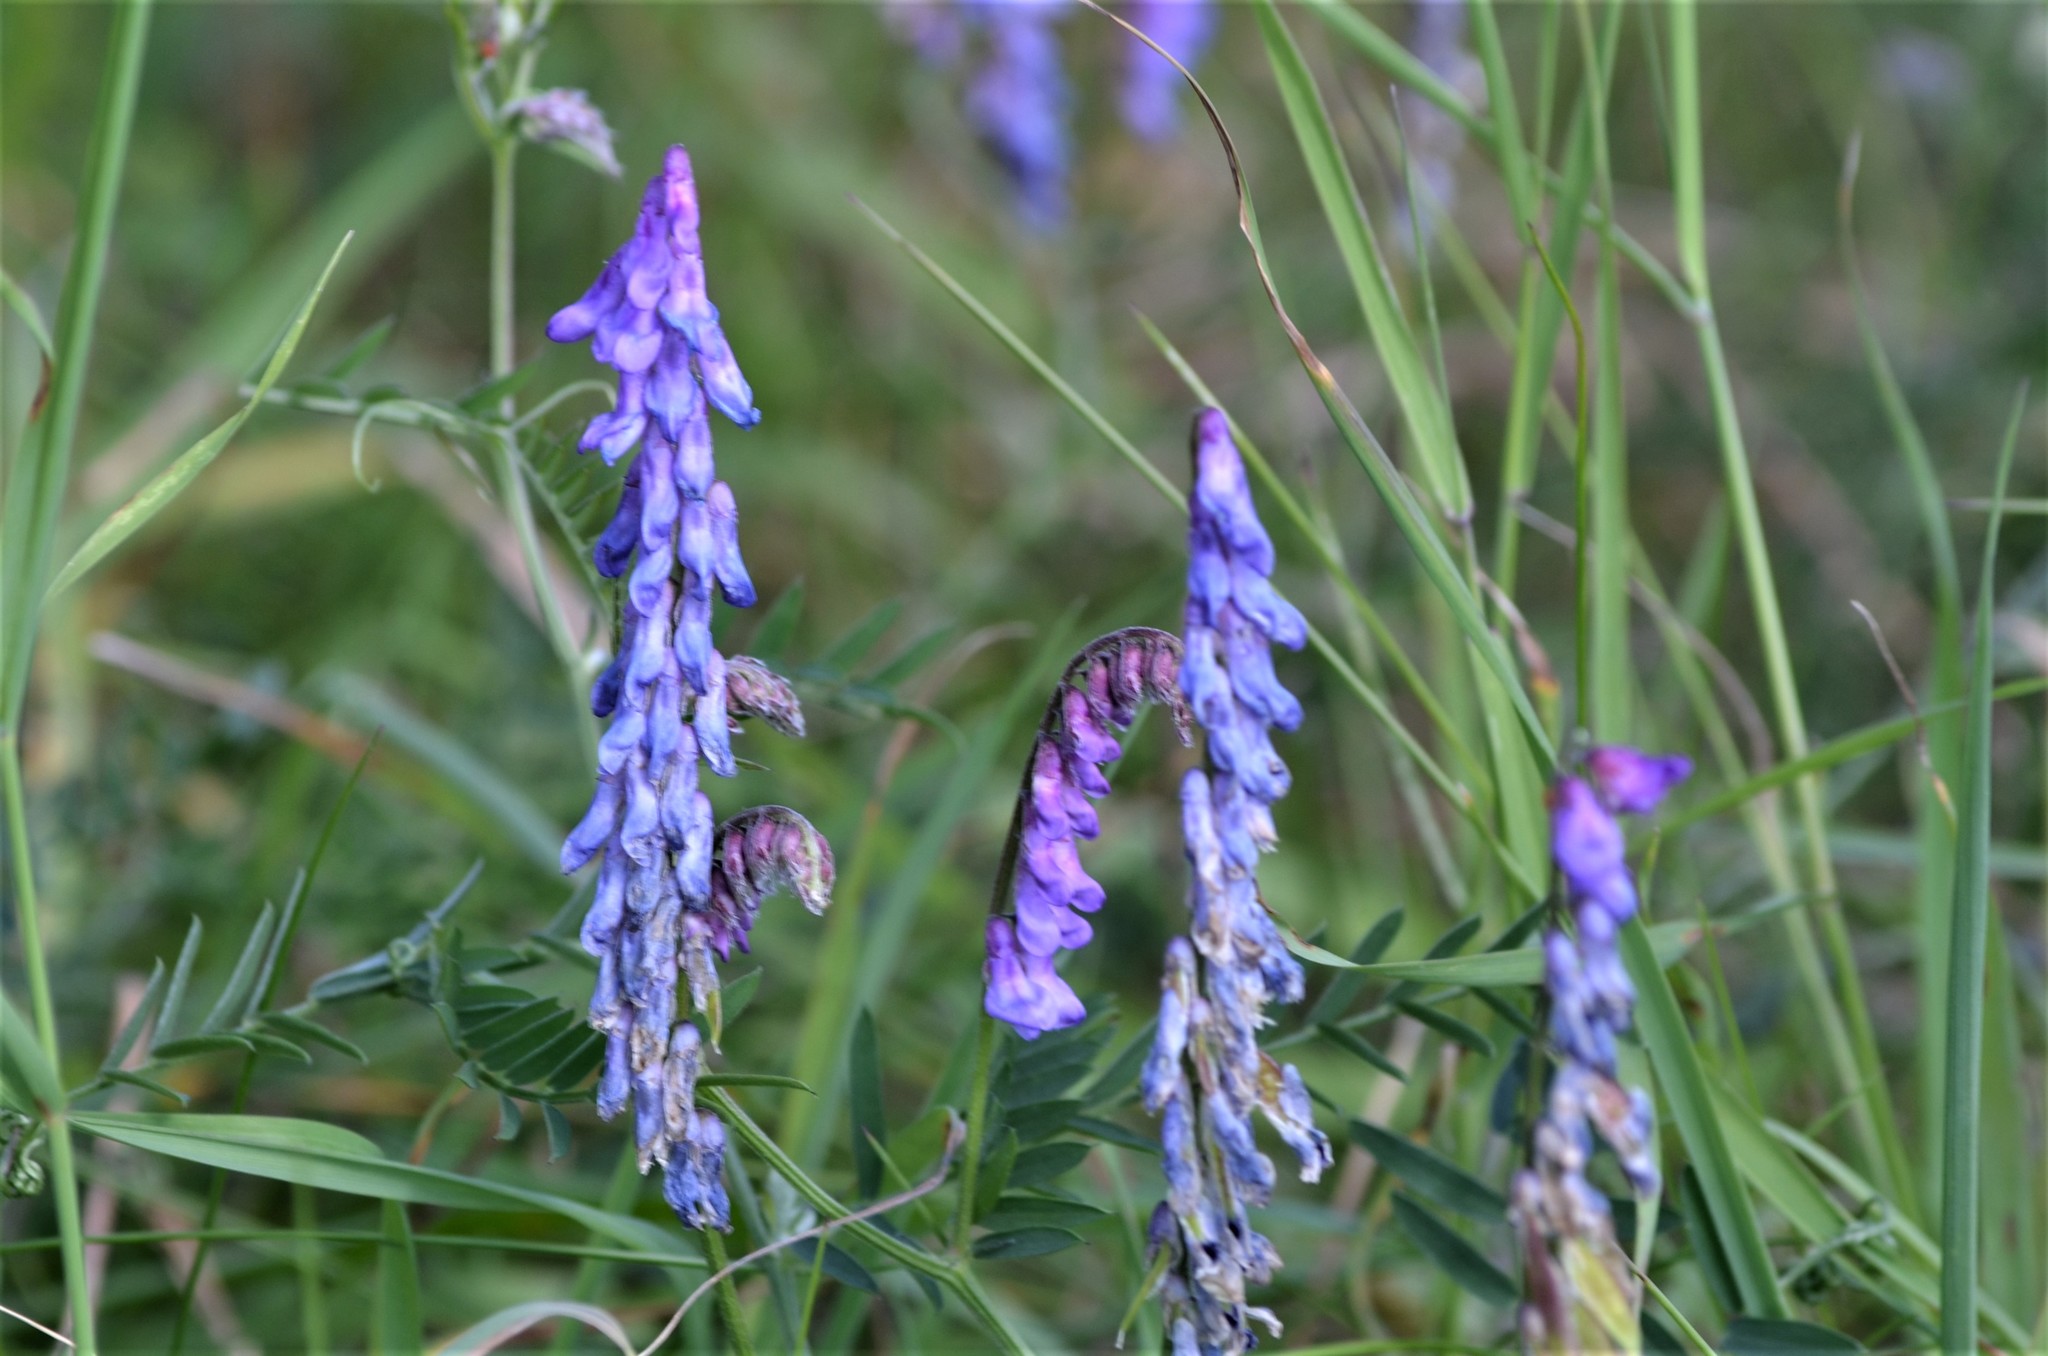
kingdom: Plantae
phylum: Tracheophyta
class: Magnoliopsida
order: Fabales
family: Fabaceae
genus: Vicia
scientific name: Vicia cracca
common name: Bird vetch
